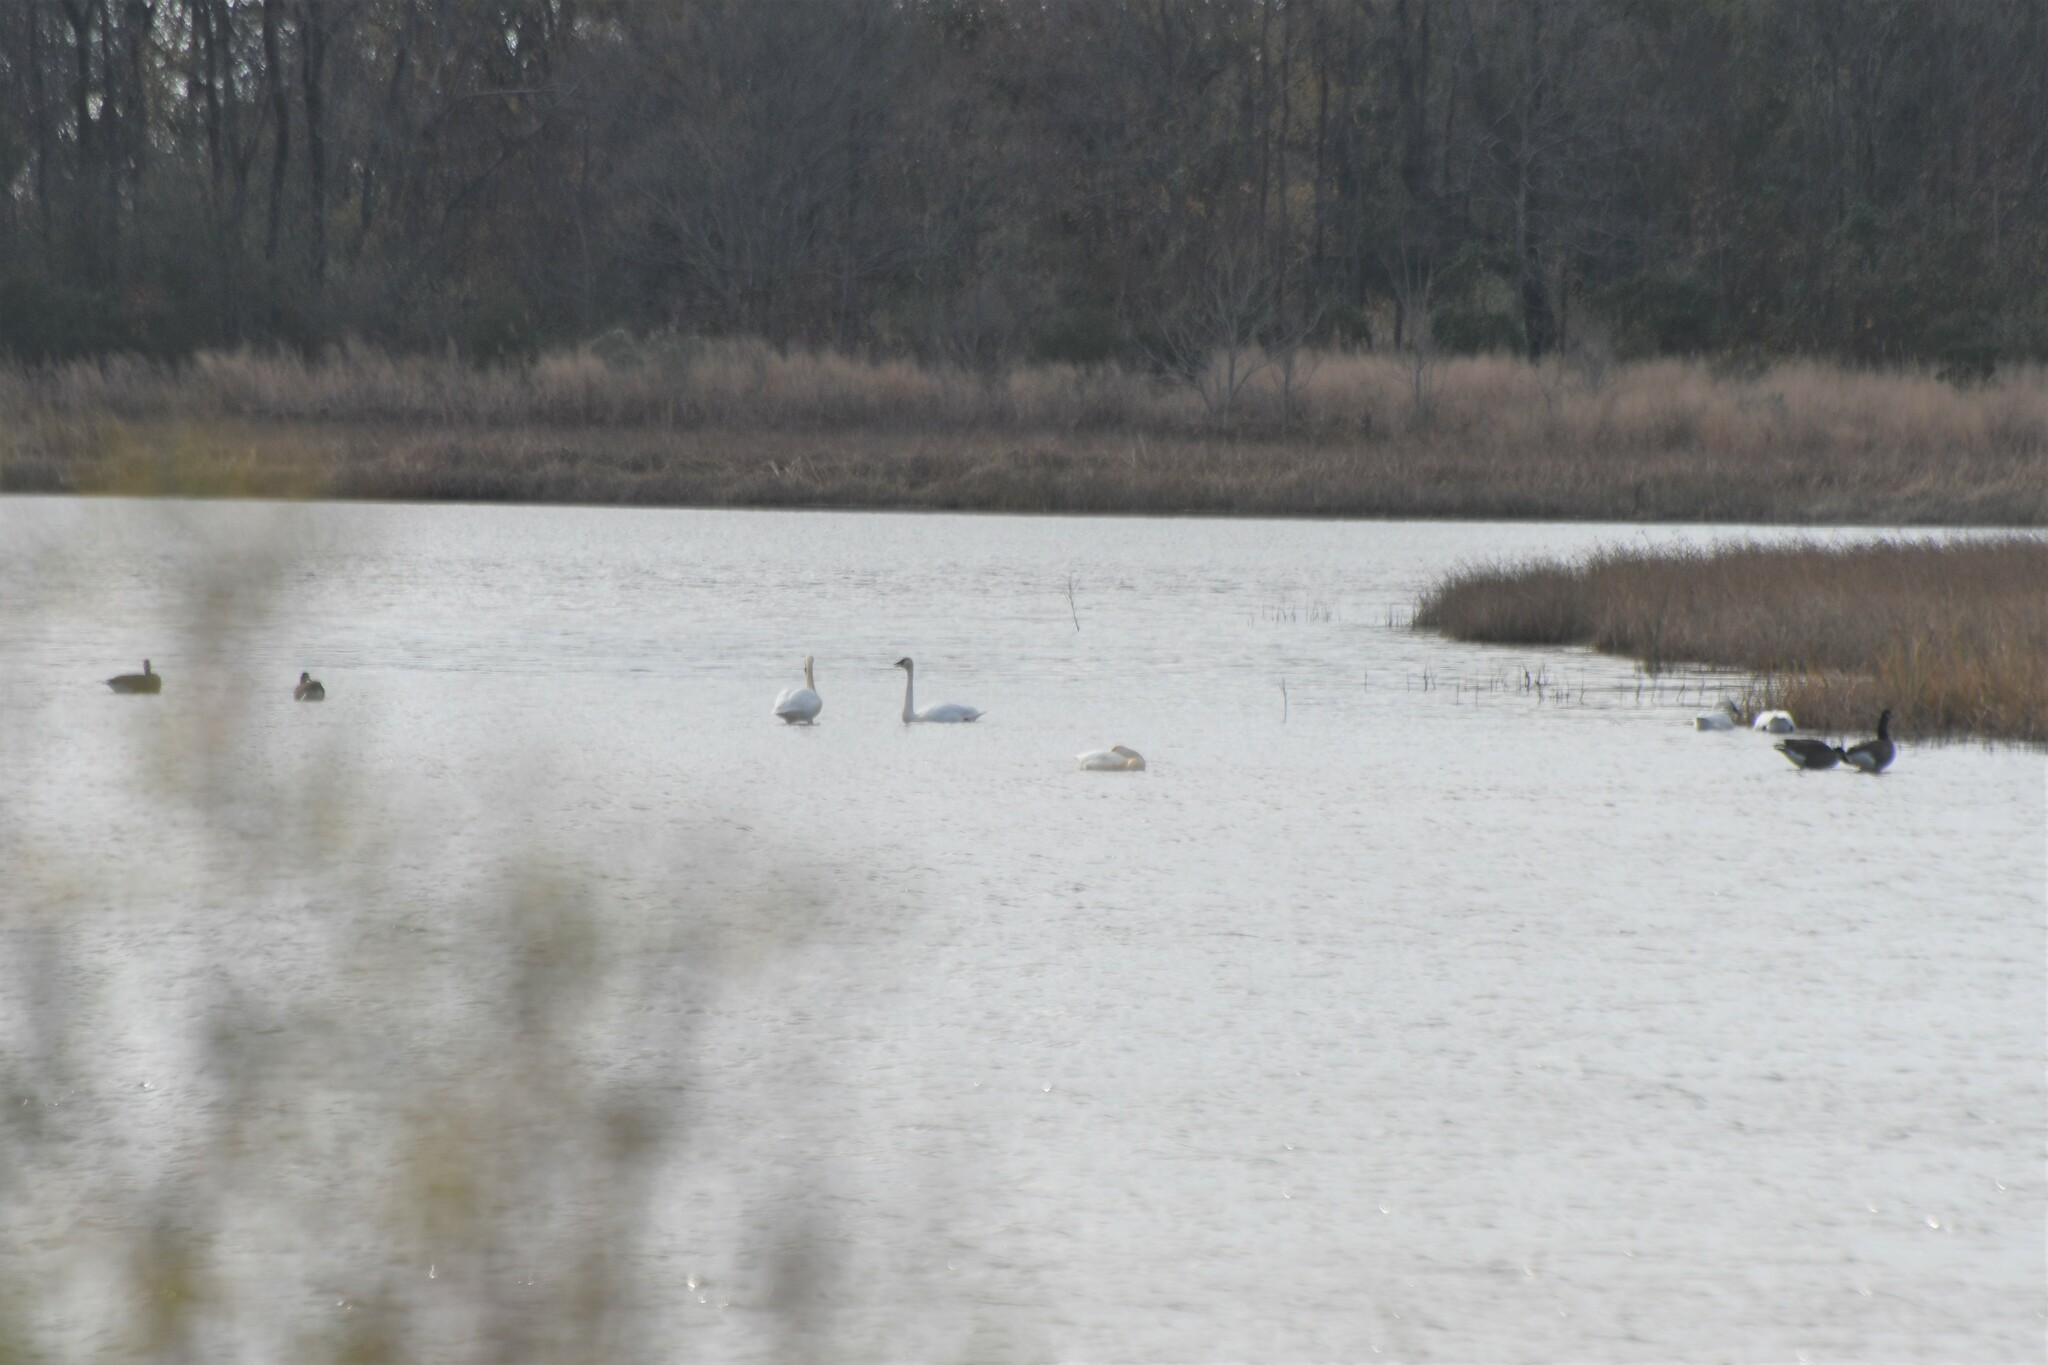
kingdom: Animalia
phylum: Chordata
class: Aves
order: Anseriformes
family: Anatidae
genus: Cygnus
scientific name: Cygnus columbianus
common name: Tundra swan
